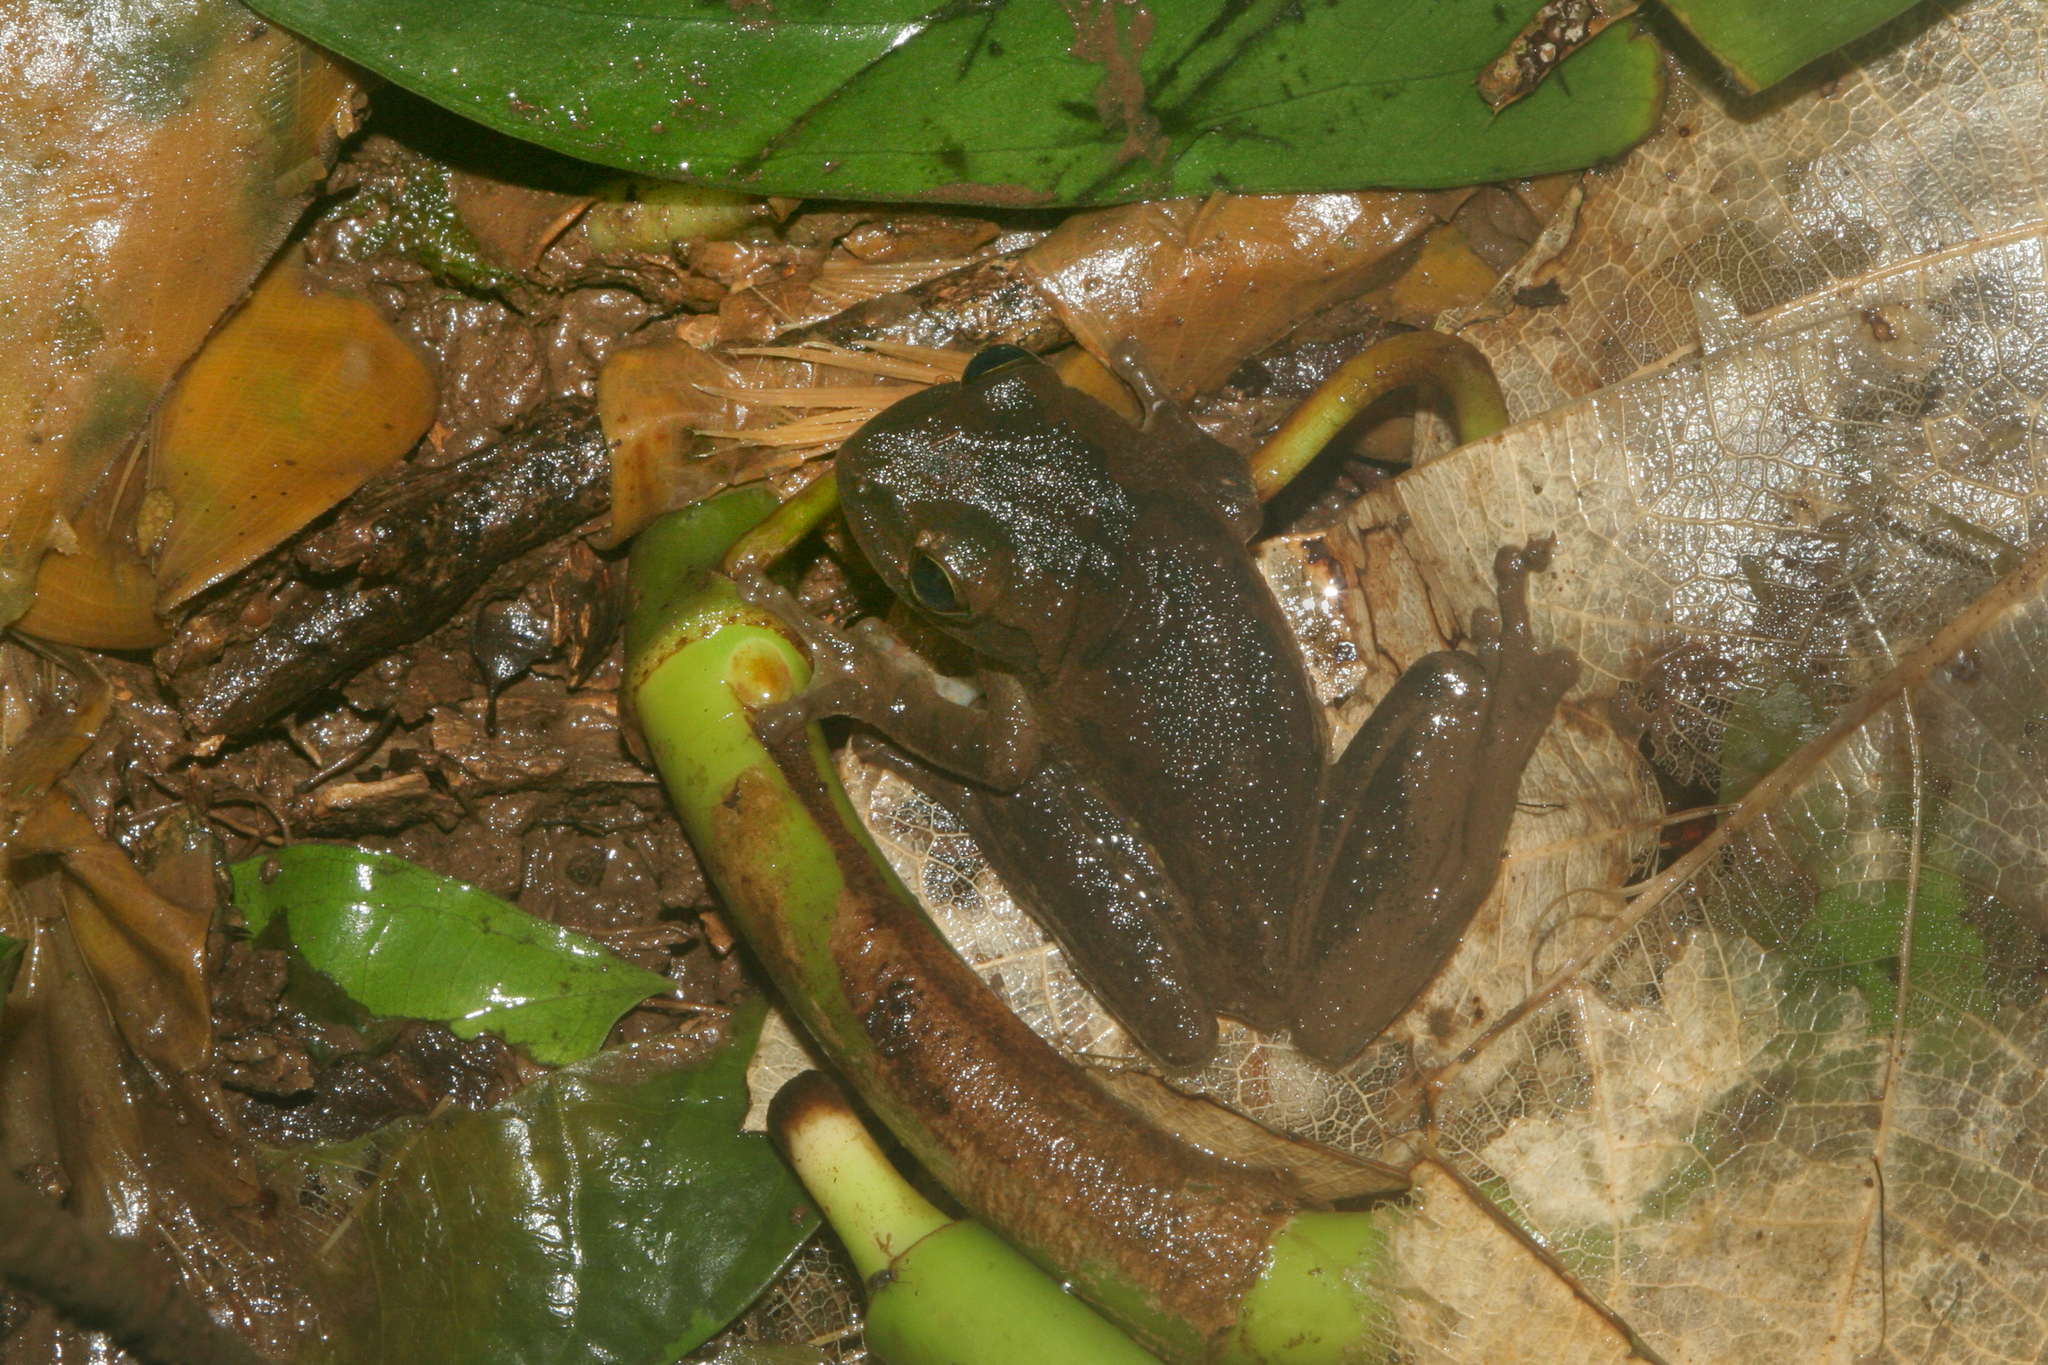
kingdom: Animalia
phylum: Chordata
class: Amphibia
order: Anura
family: Hylidae
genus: Smilisca
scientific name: Smilisca baudinii
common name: Mexican smilisca
